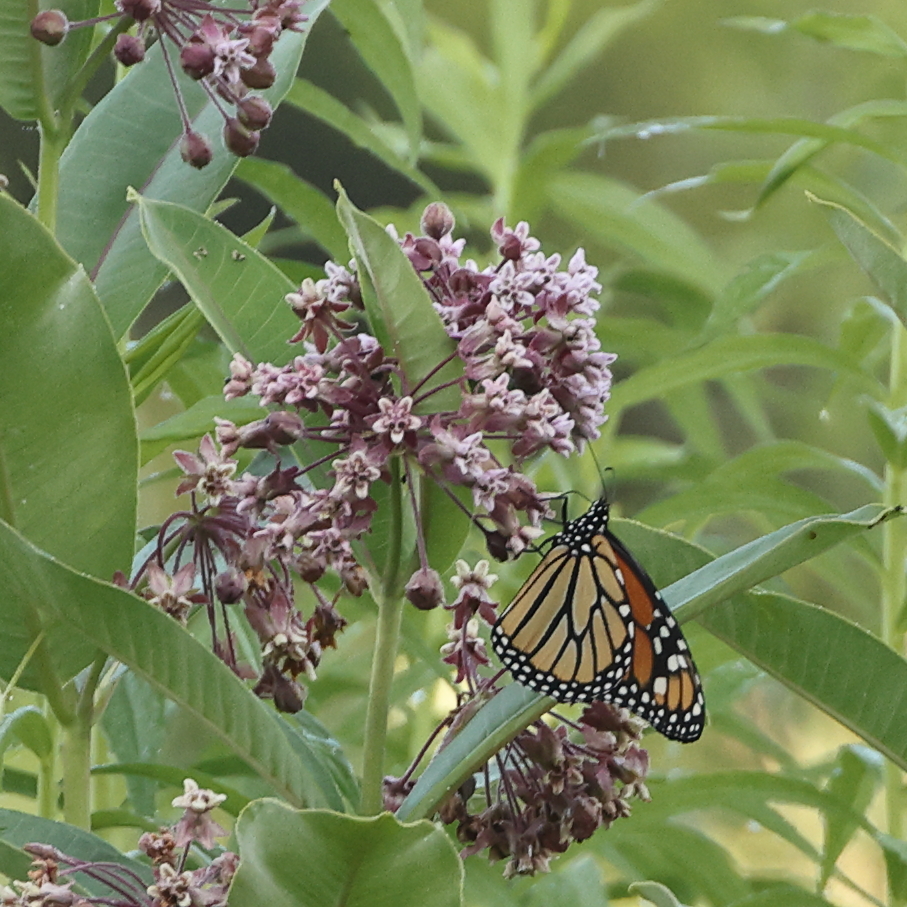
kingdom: Animalia
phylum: Arthropoda
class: Insecta
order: Lepidoptera
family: Nymphalidae
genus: Danaus
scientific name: Danaus plexippus
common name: Monarch
